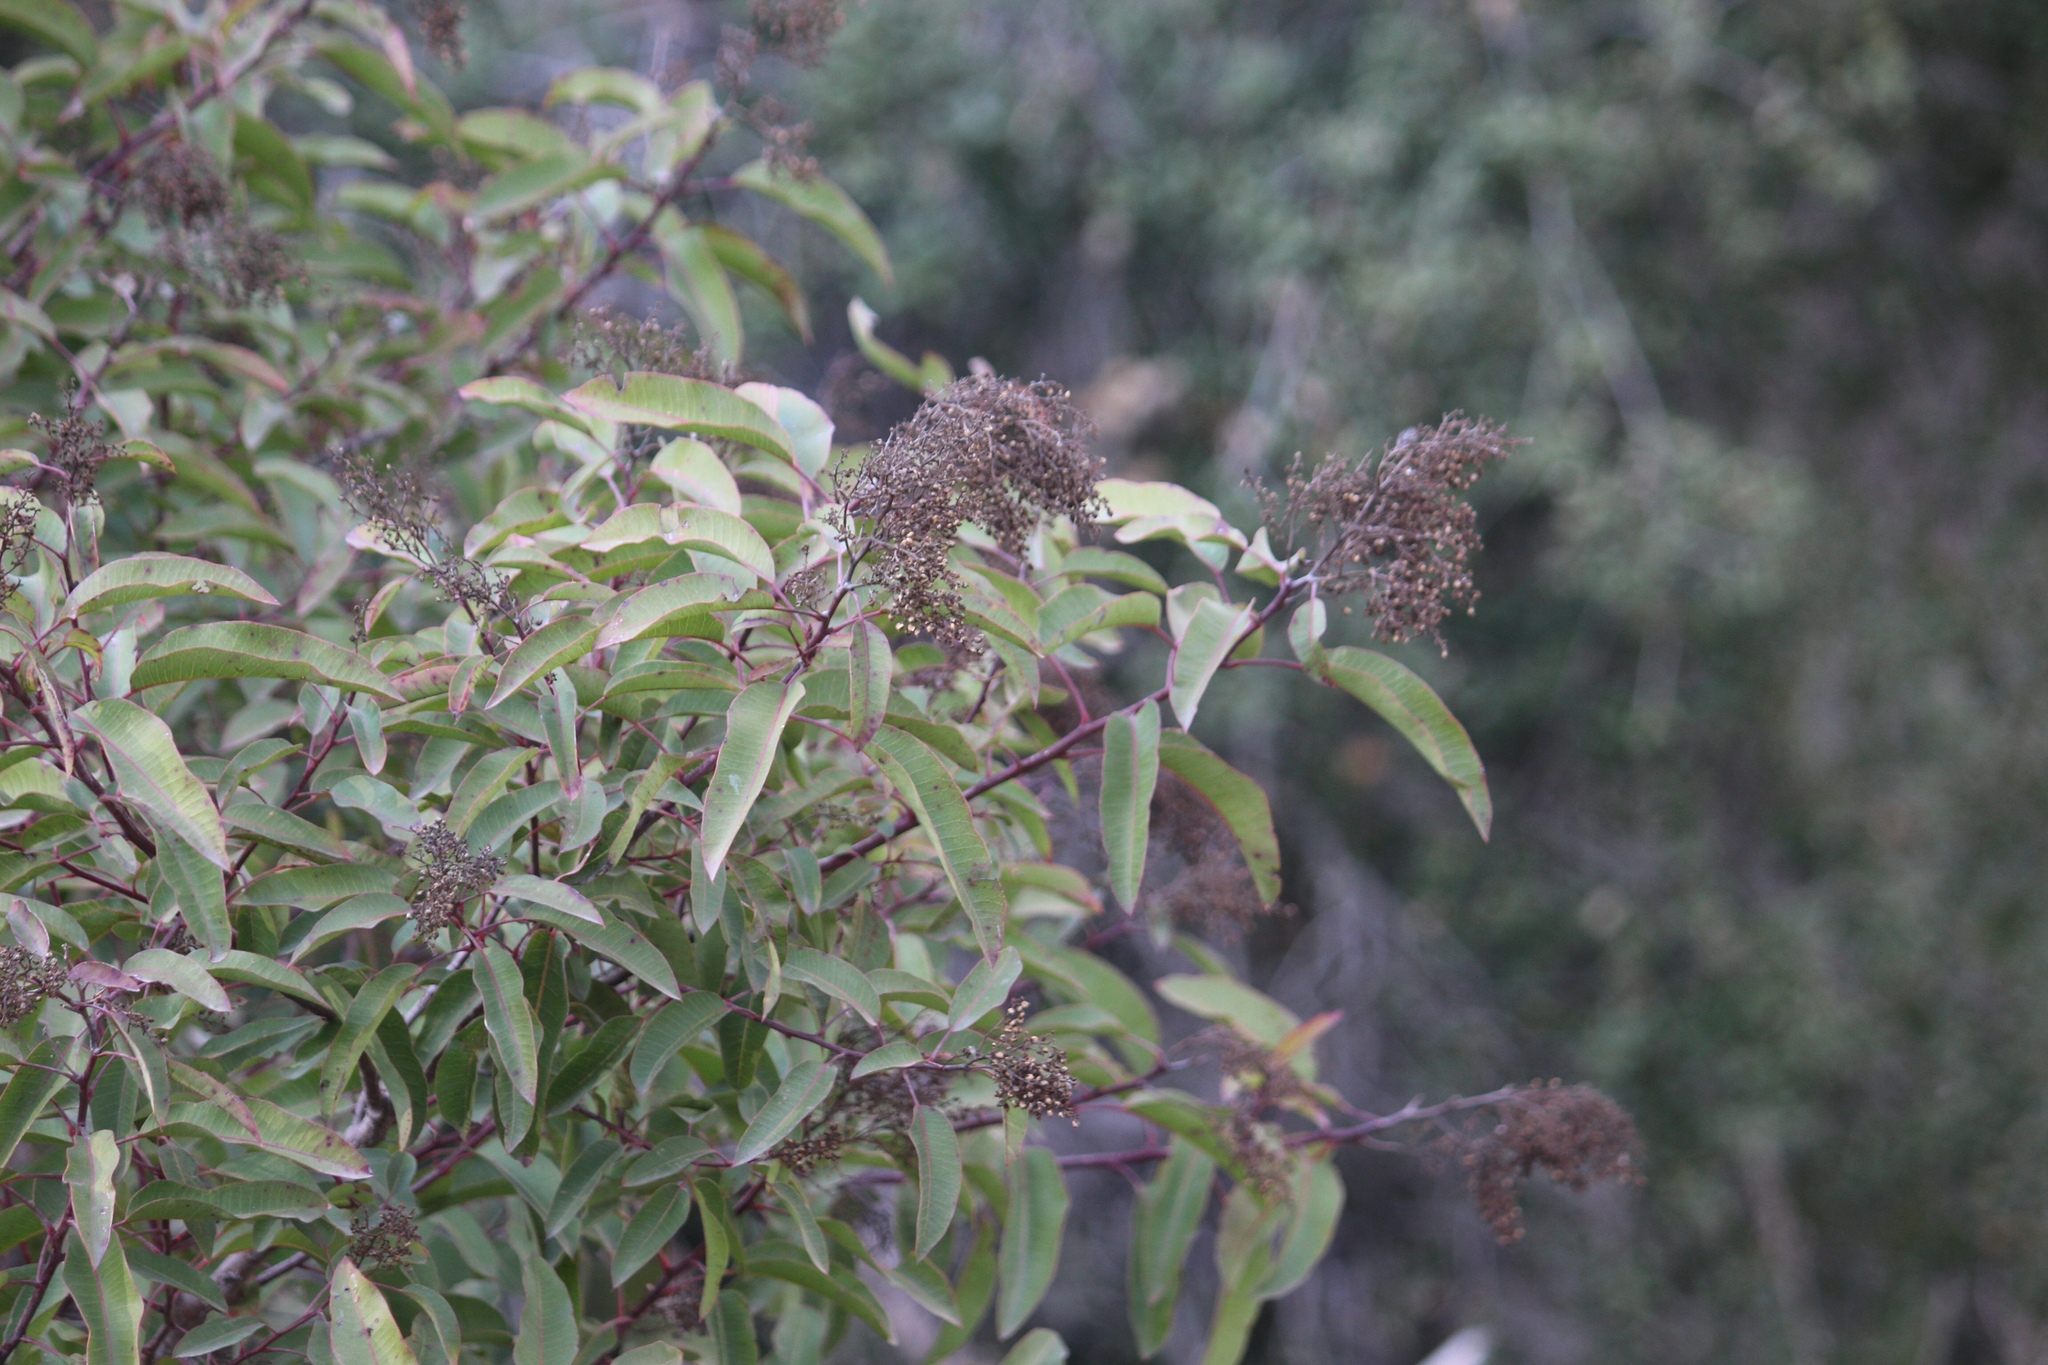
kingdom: Plantae
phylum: Tracheophyta
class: Magnoliopsida
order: Sapindales
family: Anacardiaceae
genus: Malosma
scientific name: Malosma laurina
